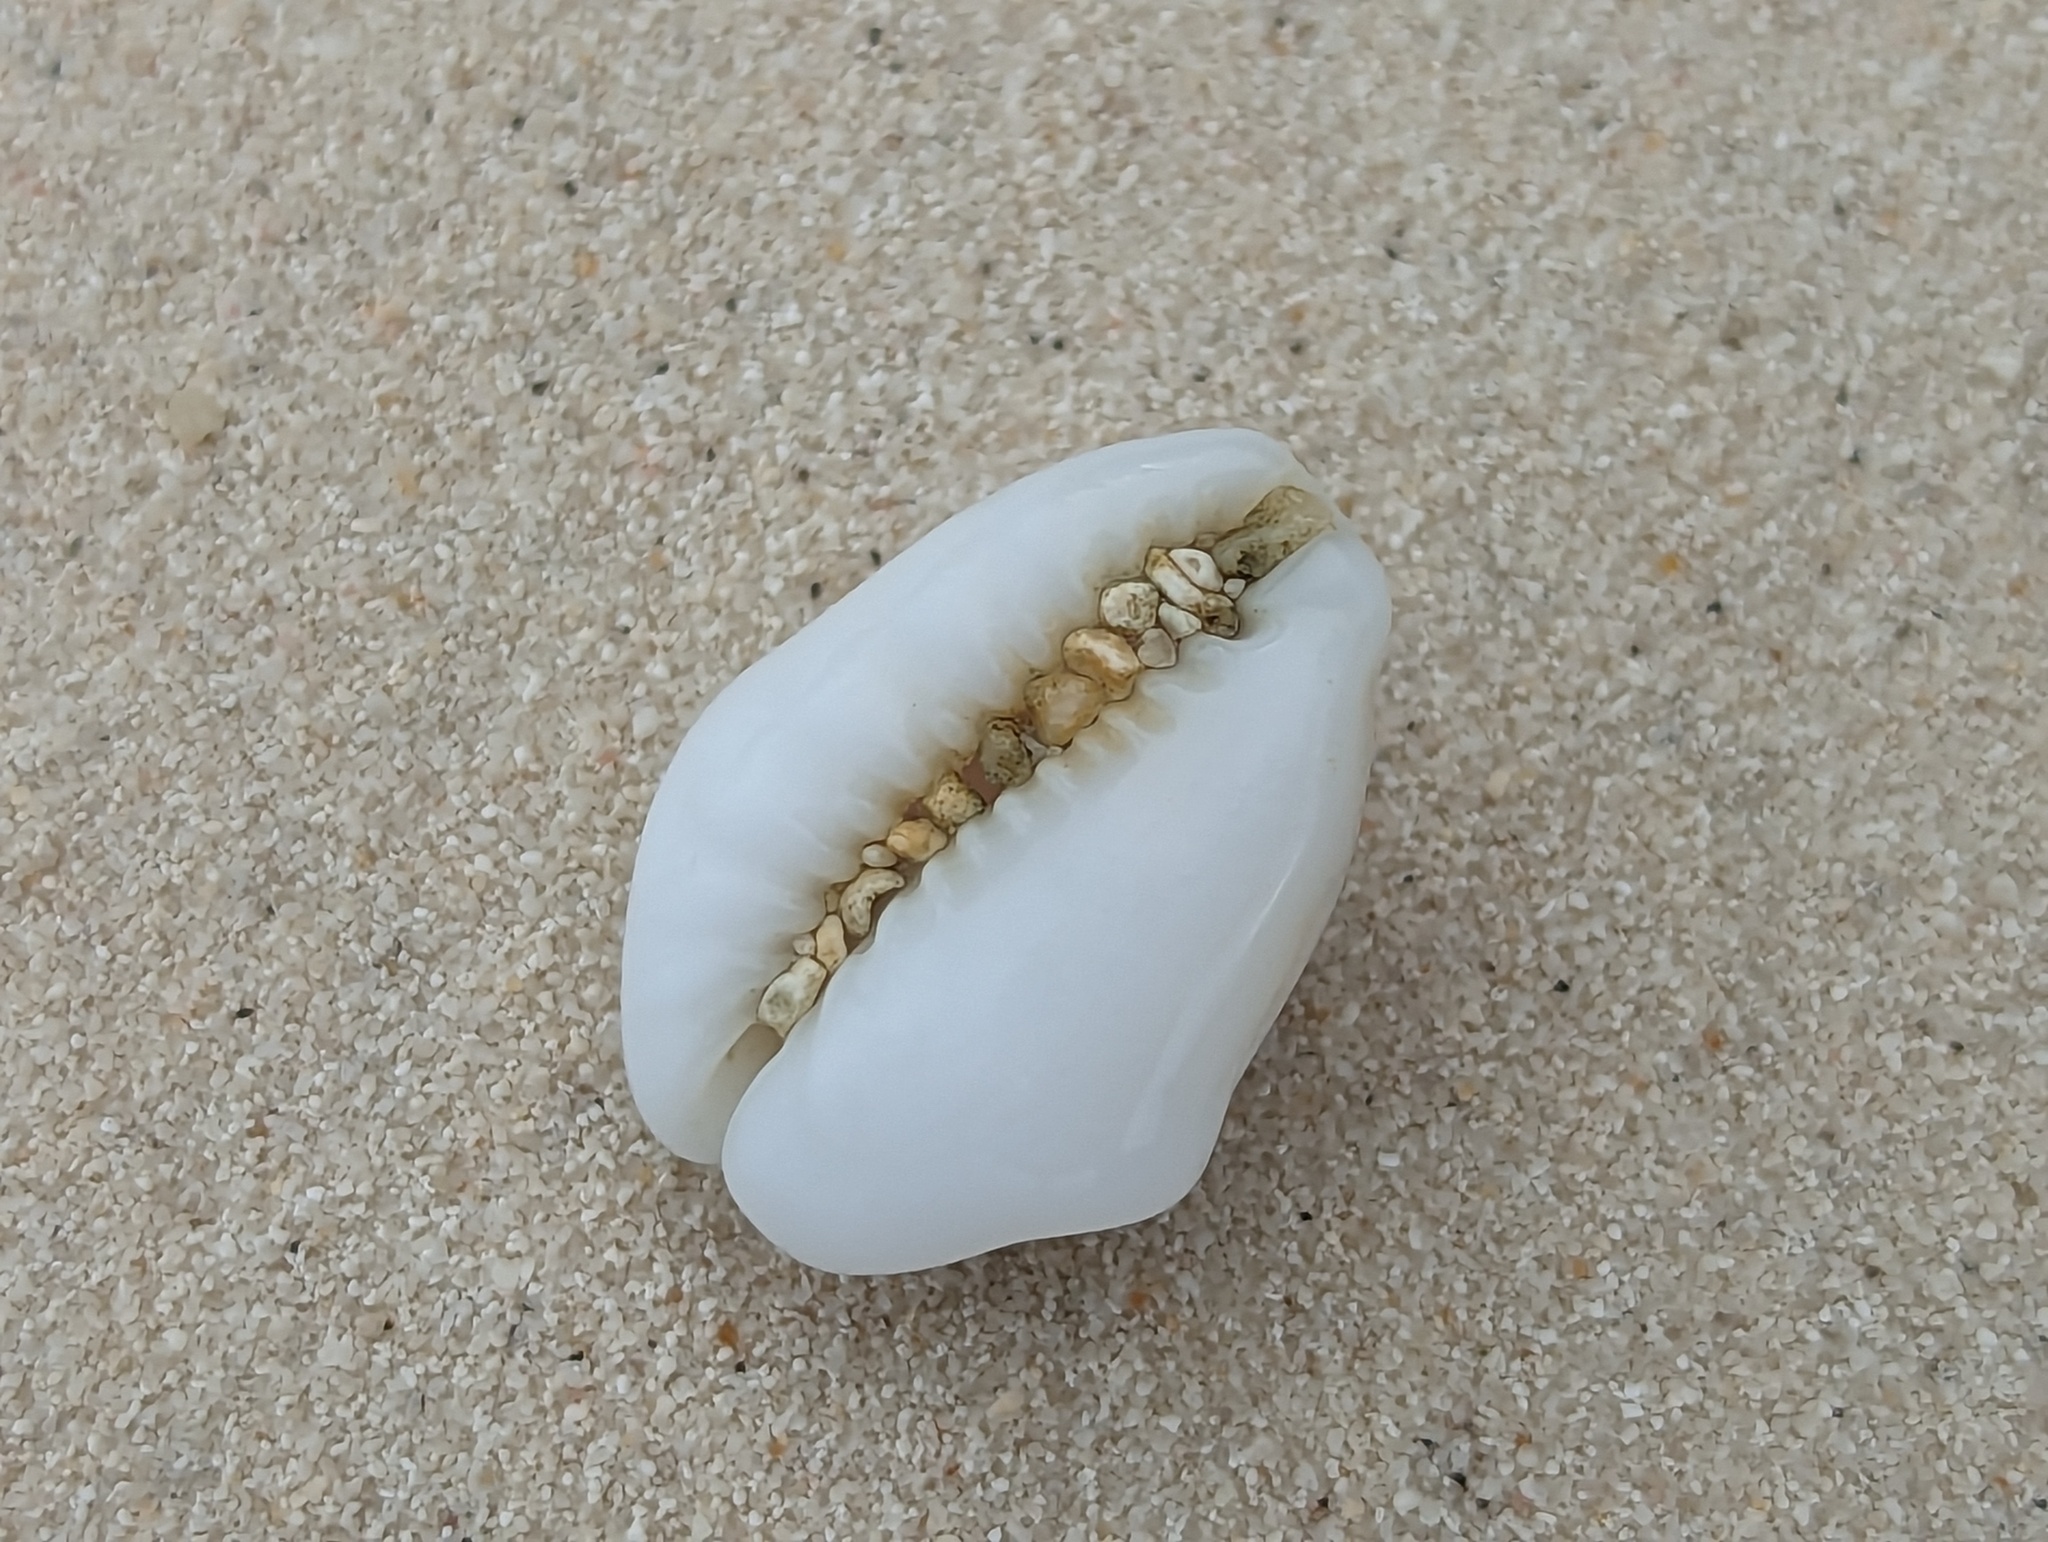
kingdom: Animalia
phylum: Mollusca
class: Gastropoda
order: Littorinimorpha
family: Cypraeidae
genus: Monetaria
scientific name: Monetaria moneta
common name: Money cowrie
